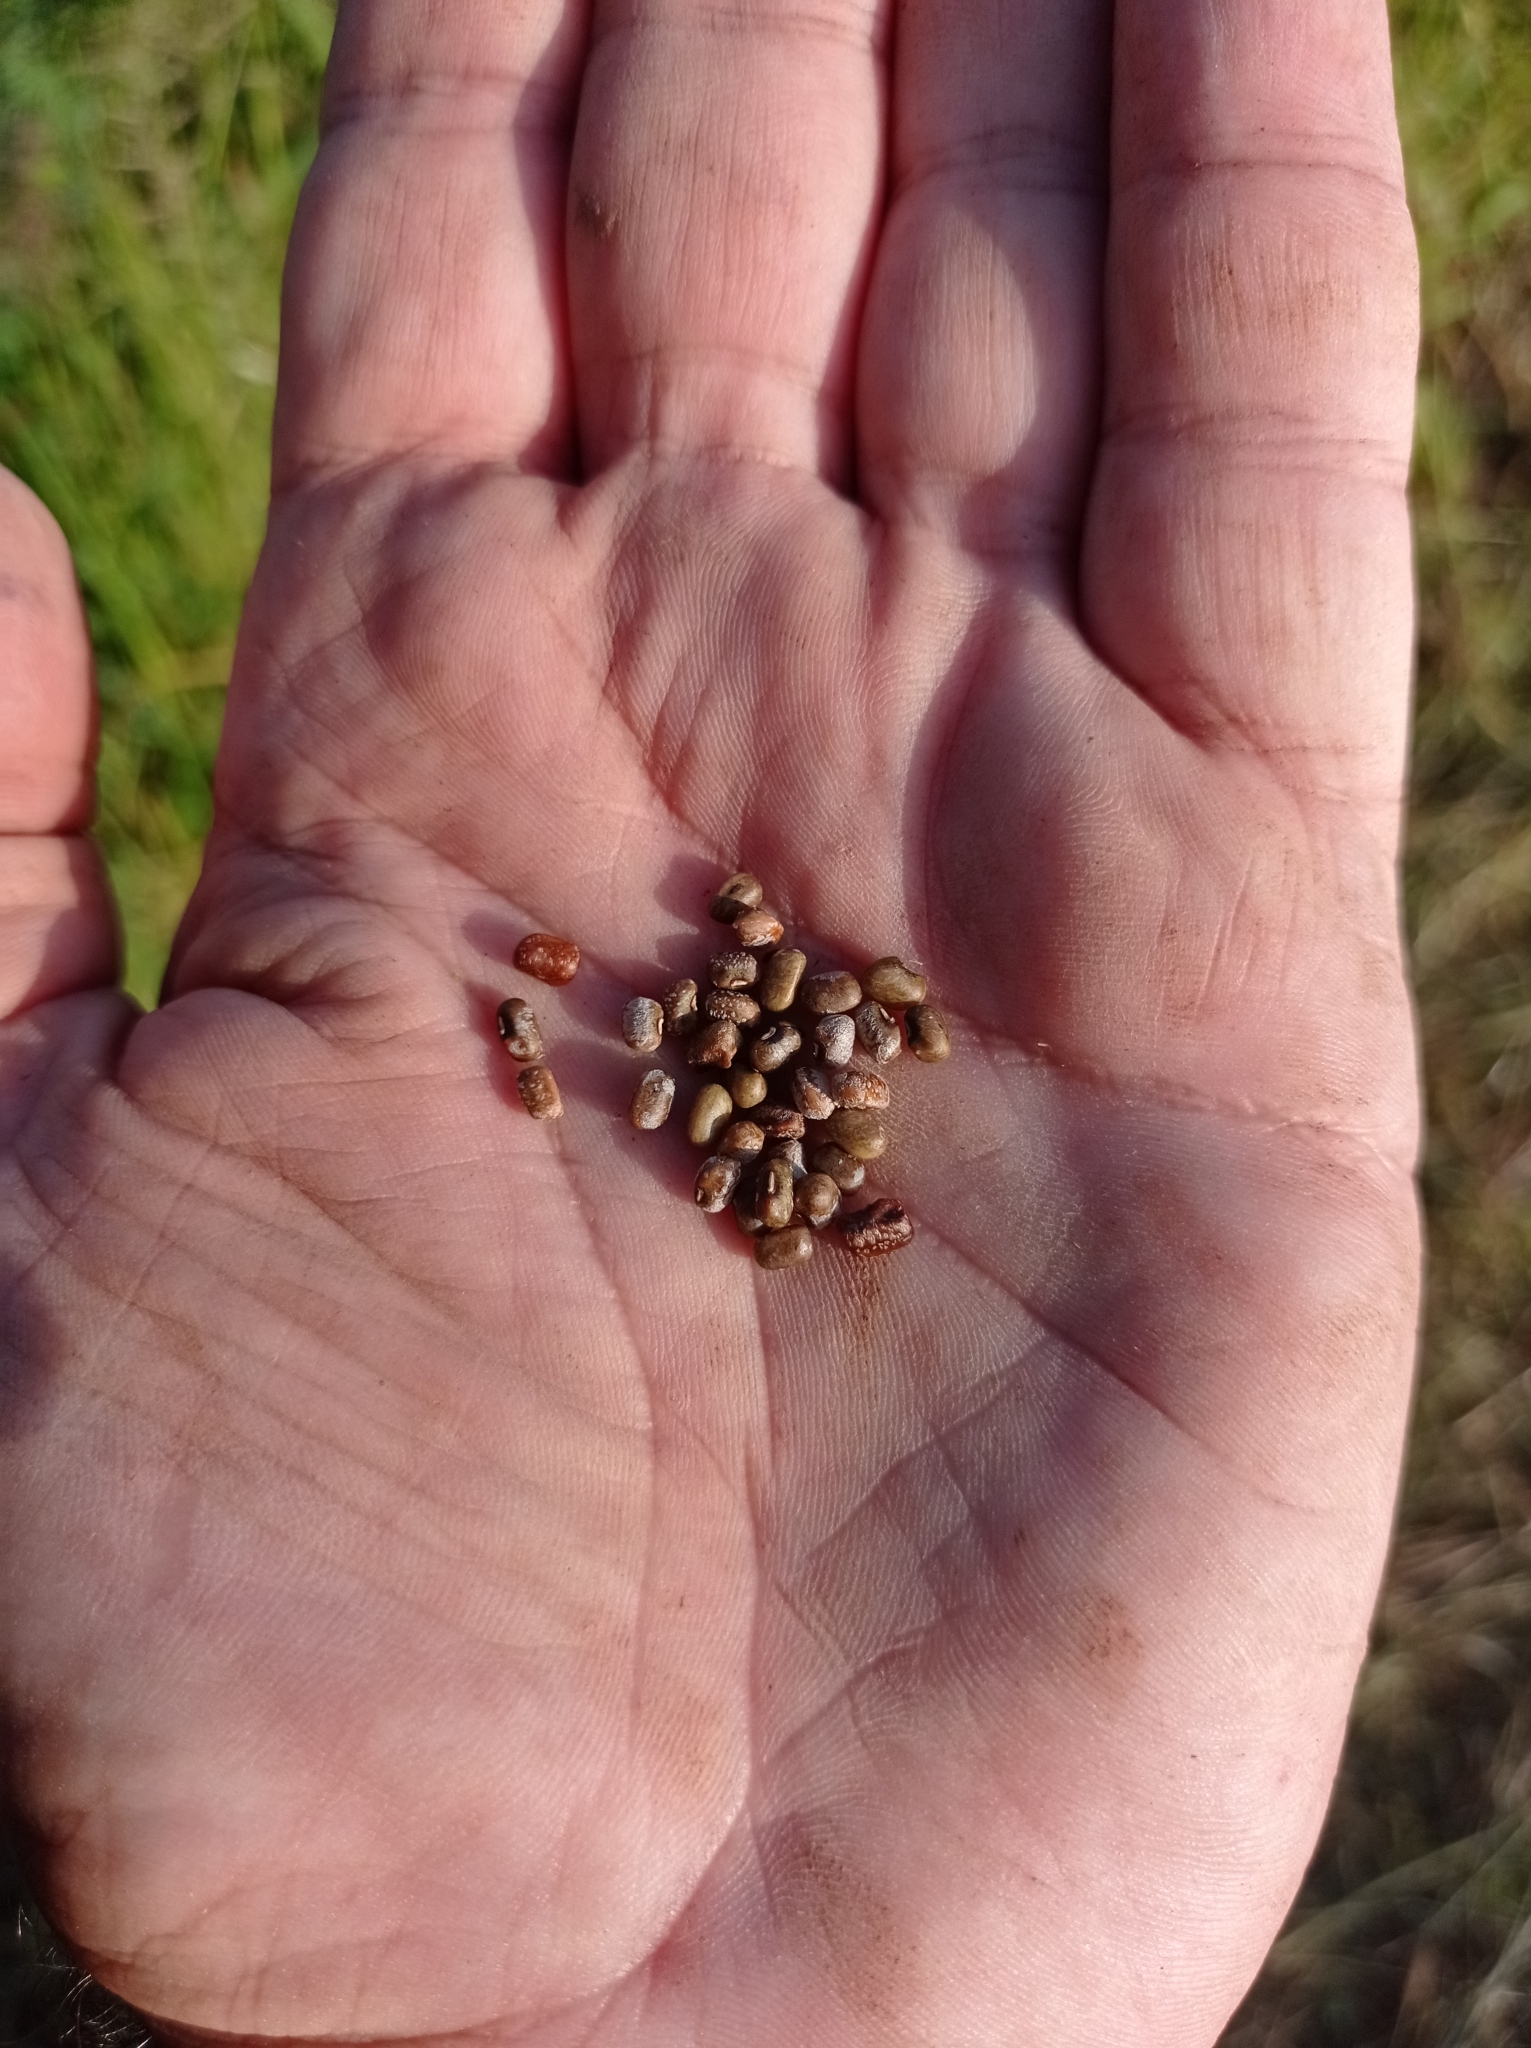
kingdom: Plantae
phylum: Tracheophyta
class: Magnoliopsida
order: Fabales
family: Fabaceae
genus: Vigna
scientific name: Vigna vexillata
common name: Zombi pea
